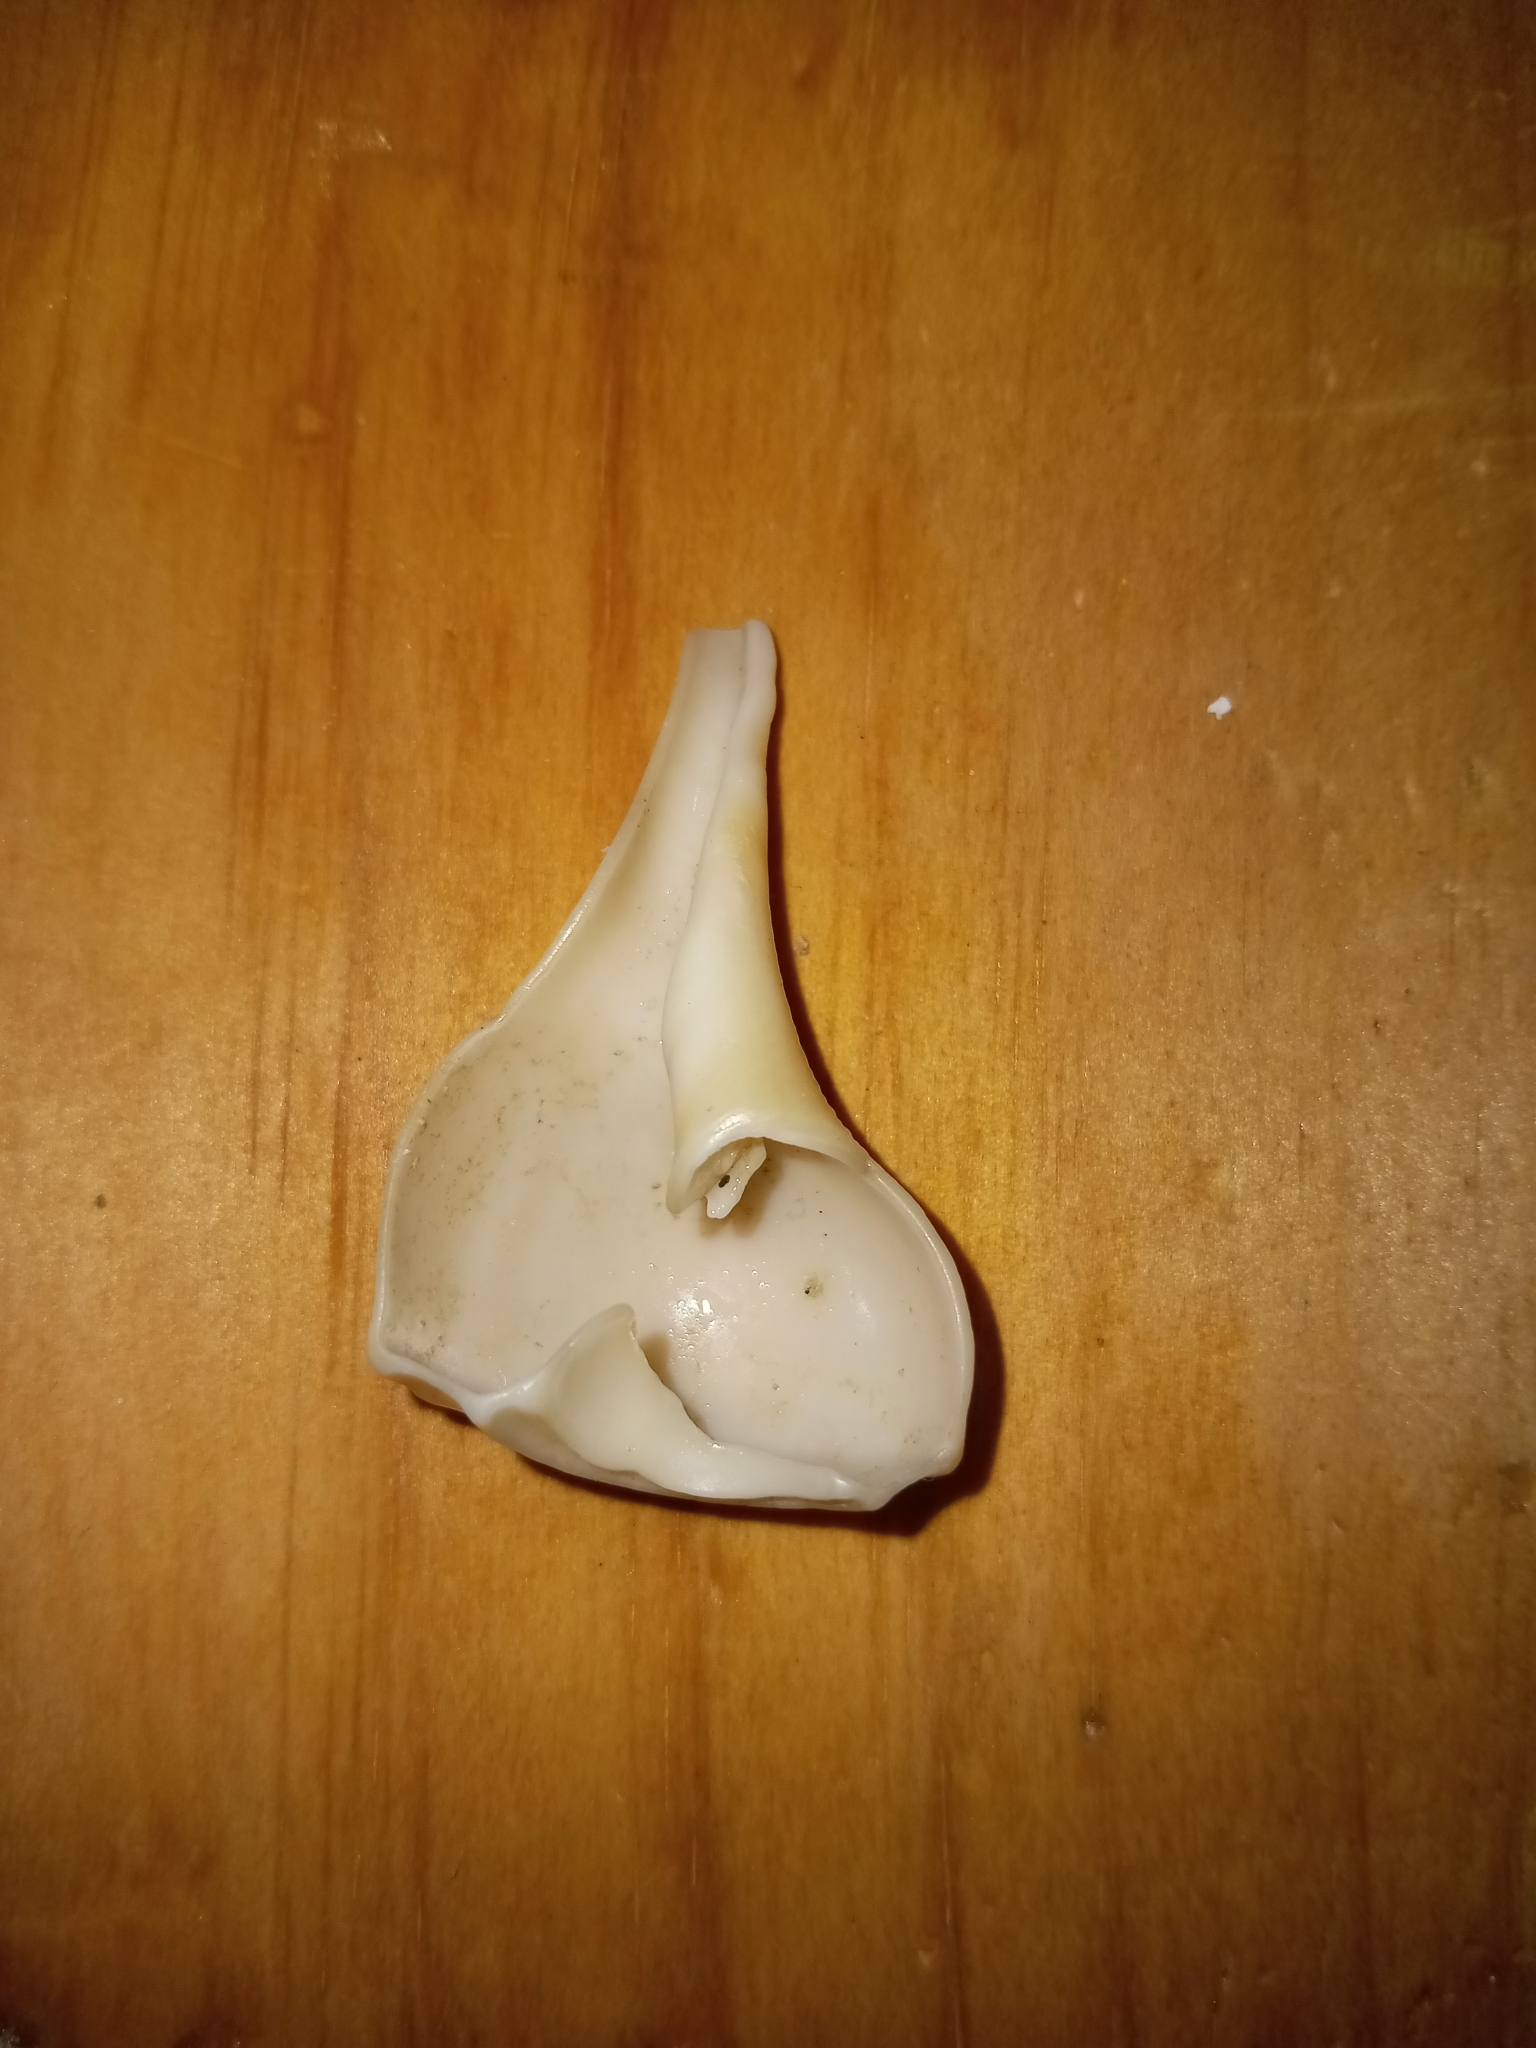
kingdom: Animalia
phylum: Mollusca
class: Gastropoda
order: Neogastropoda
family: Busyconidae
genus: Busycotypus
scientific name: Busycotypus canaliculatus
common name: Channeled whelk
